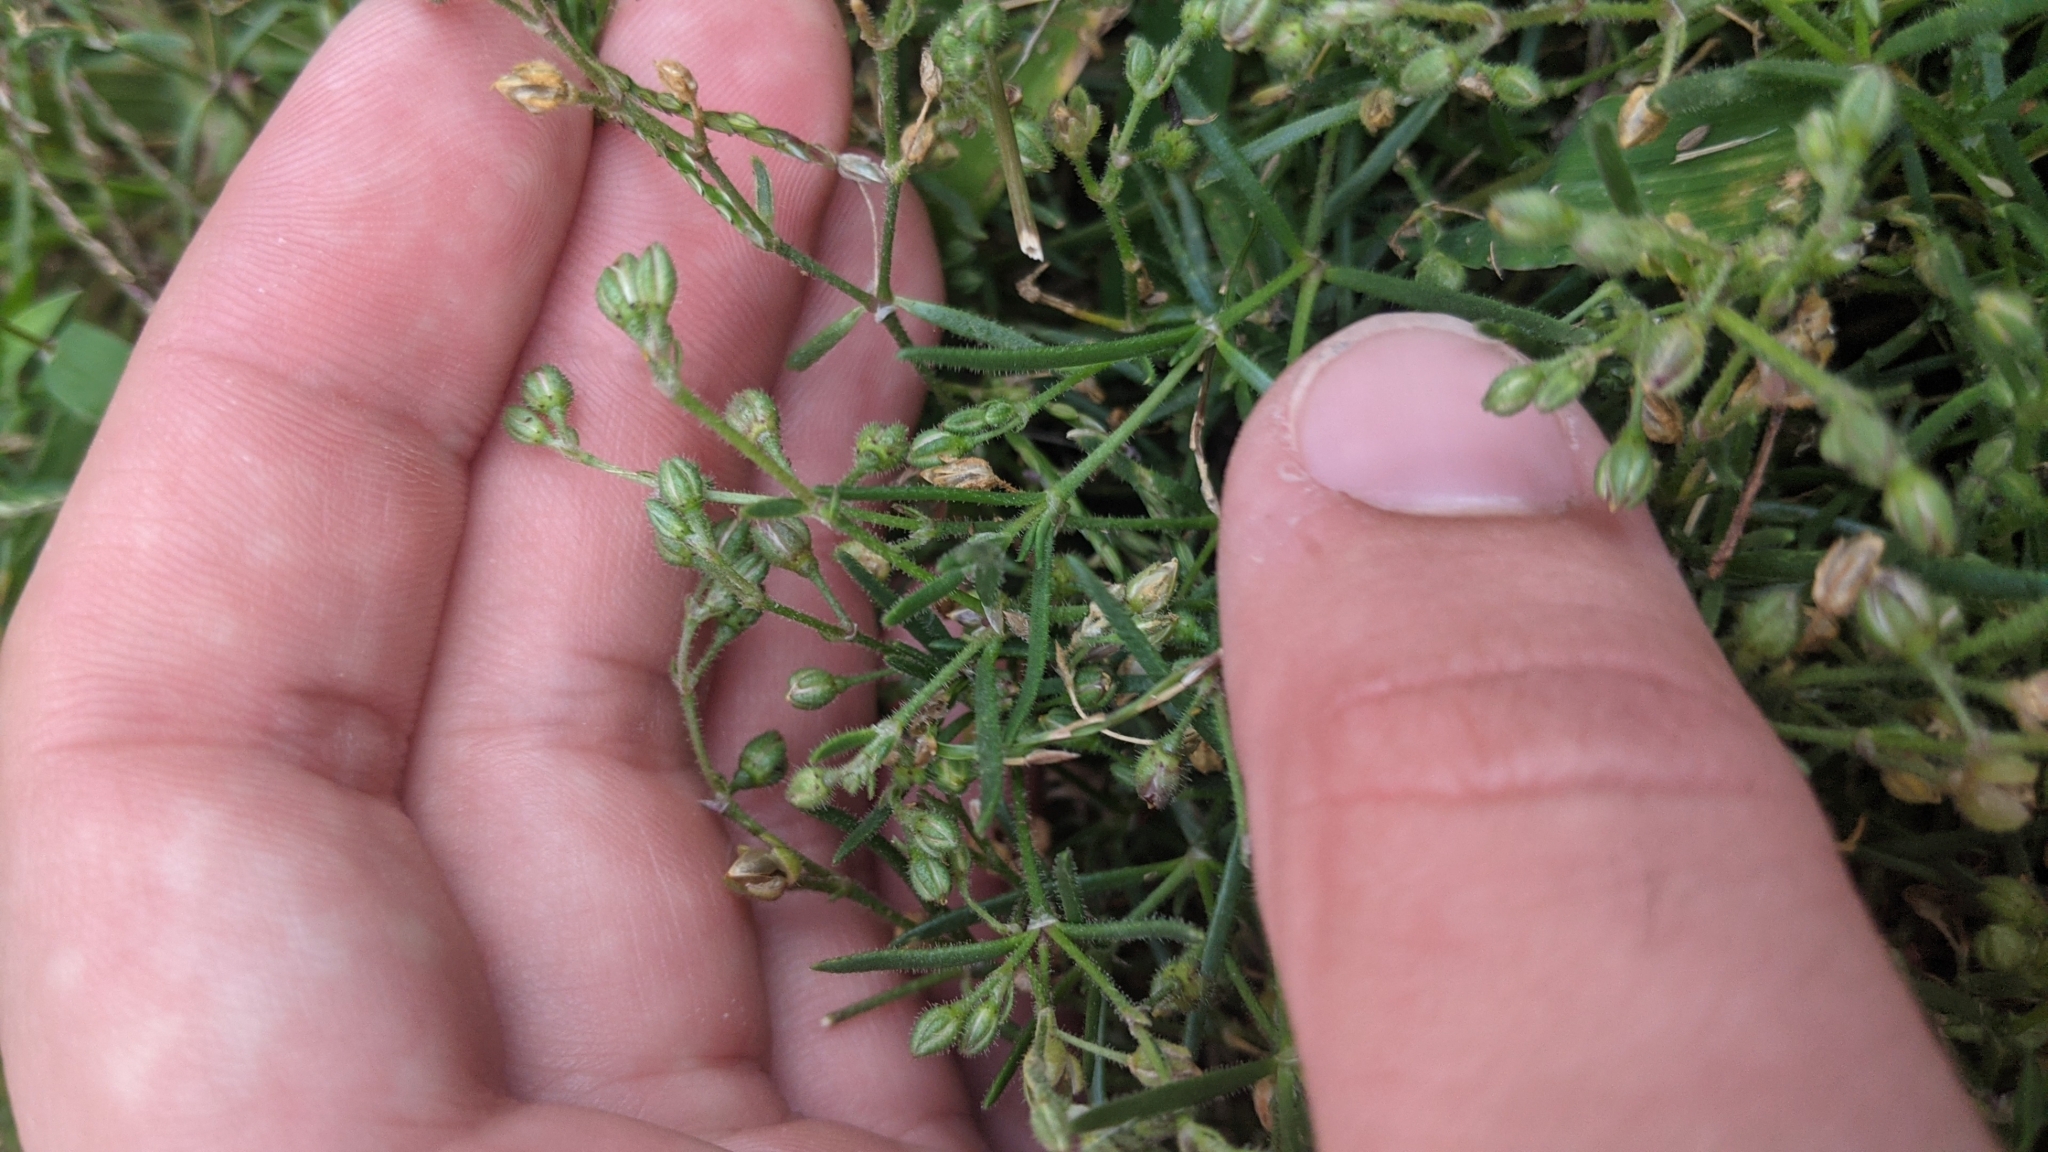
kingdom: Plantae
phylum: Tracheophyta
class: Magnoliopsida
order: Caryophyllales
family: Caryophyllaceae
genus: Spergularia
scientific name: Spergularia marina
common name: Lesser sea-spurrey
